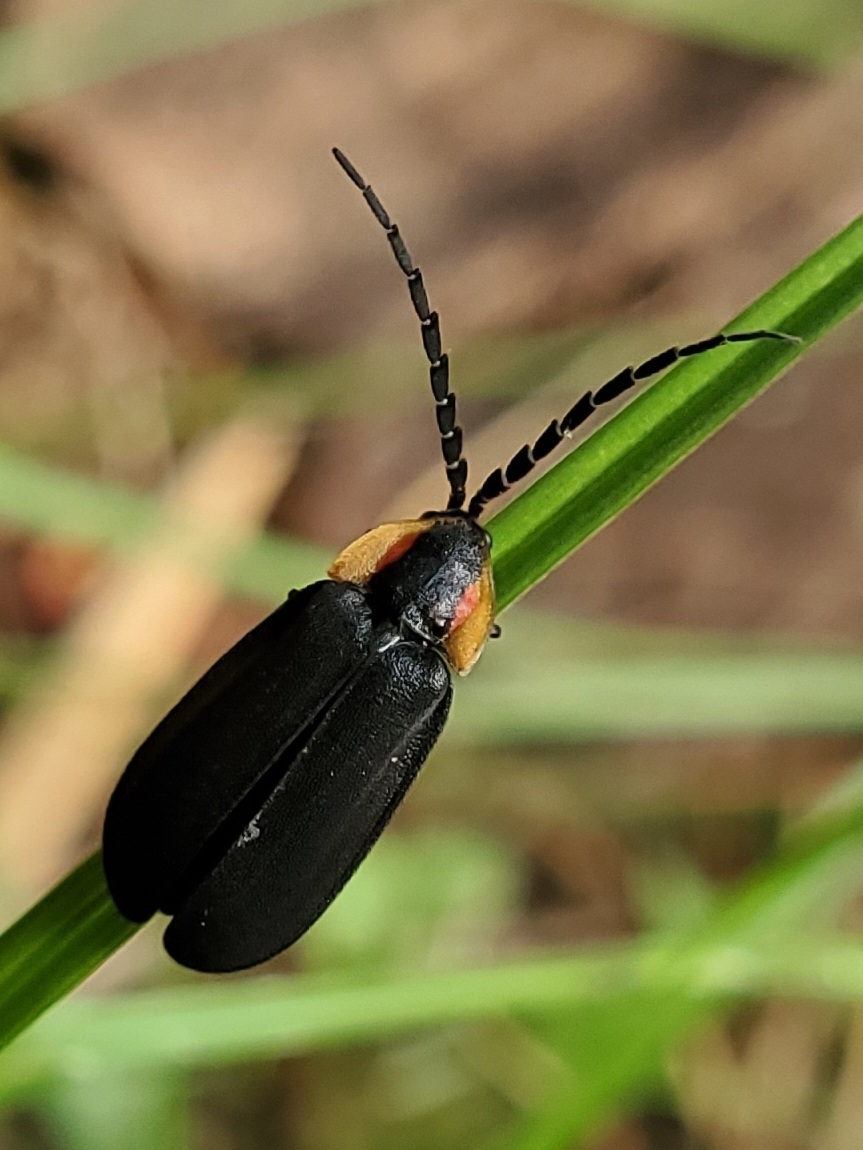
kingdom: Animalia
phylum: Arthropoda
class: Insecta
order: Coleoptera
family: Lampyridae
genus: Lucidota
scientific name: Lucidota atra
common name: Black firefly
